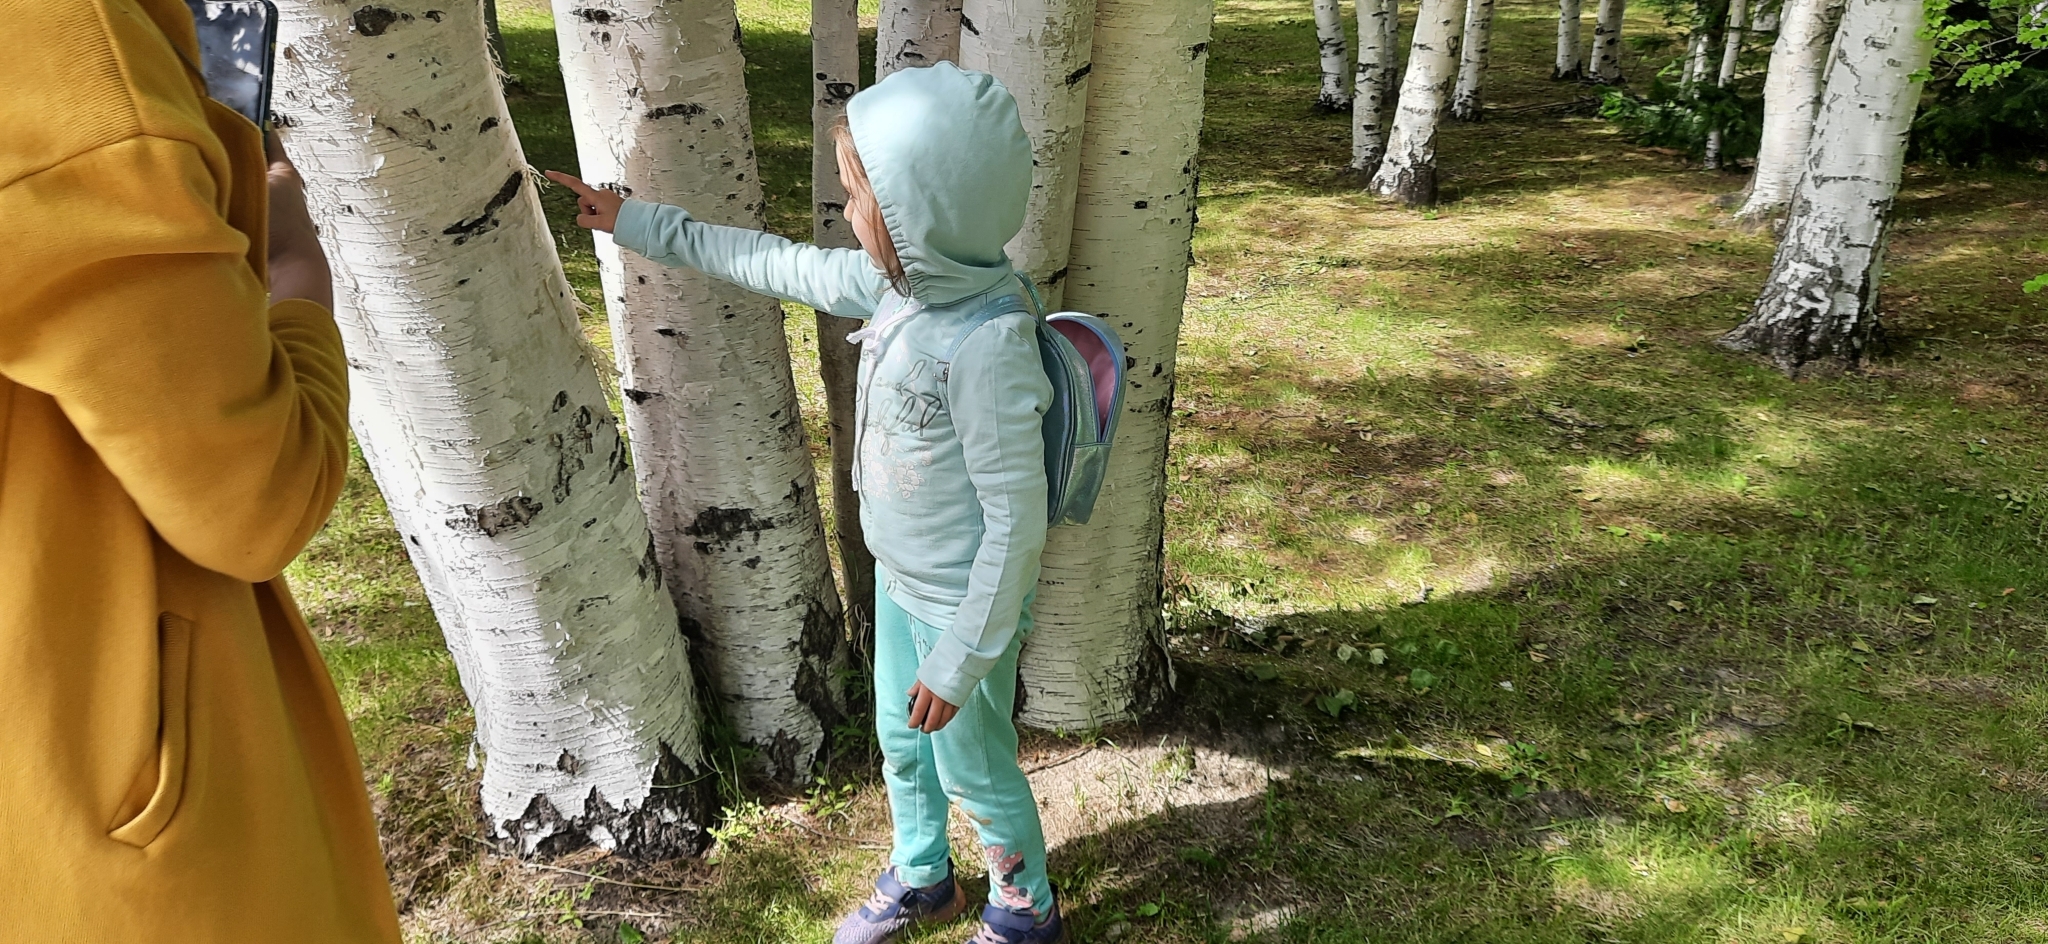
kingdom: Plantae
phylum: Tracheophyta
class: Magnoliopsida
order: Fagales
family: Betulaceae
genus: Betula
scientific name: Betula pubescens
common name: Downy birch
